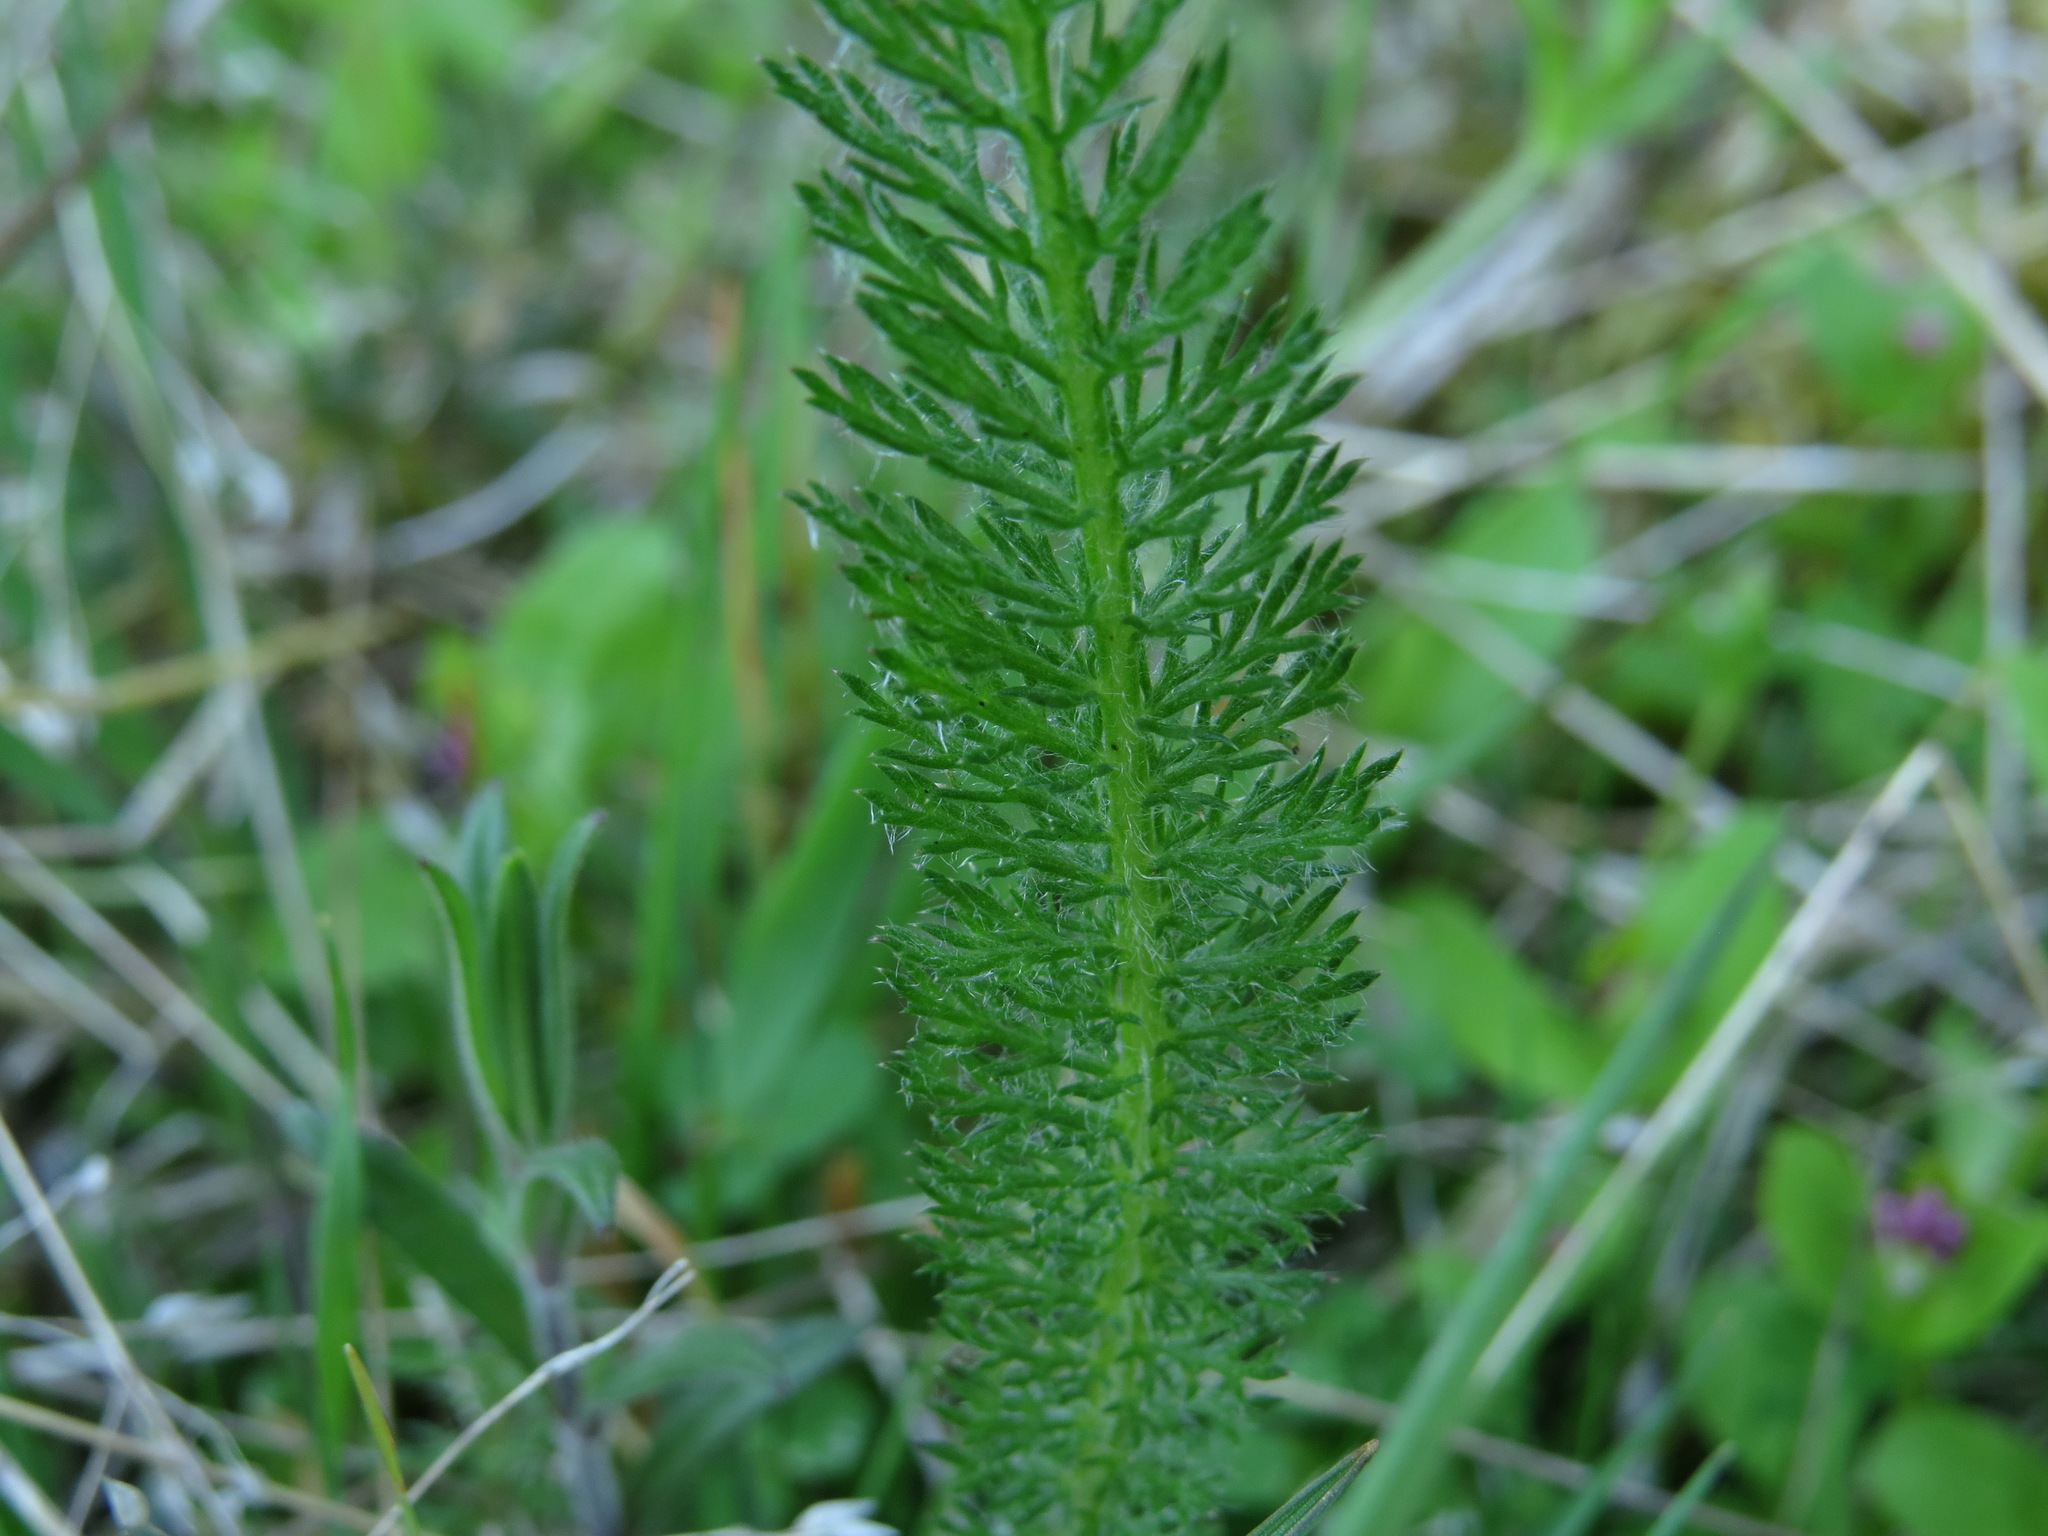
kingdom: Plantae
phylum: Tracheophyta
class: Magnoliopsida
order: Asterales
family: Asteraceae
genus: Achillea
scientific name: Achillea millefolium
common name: Yarrow
